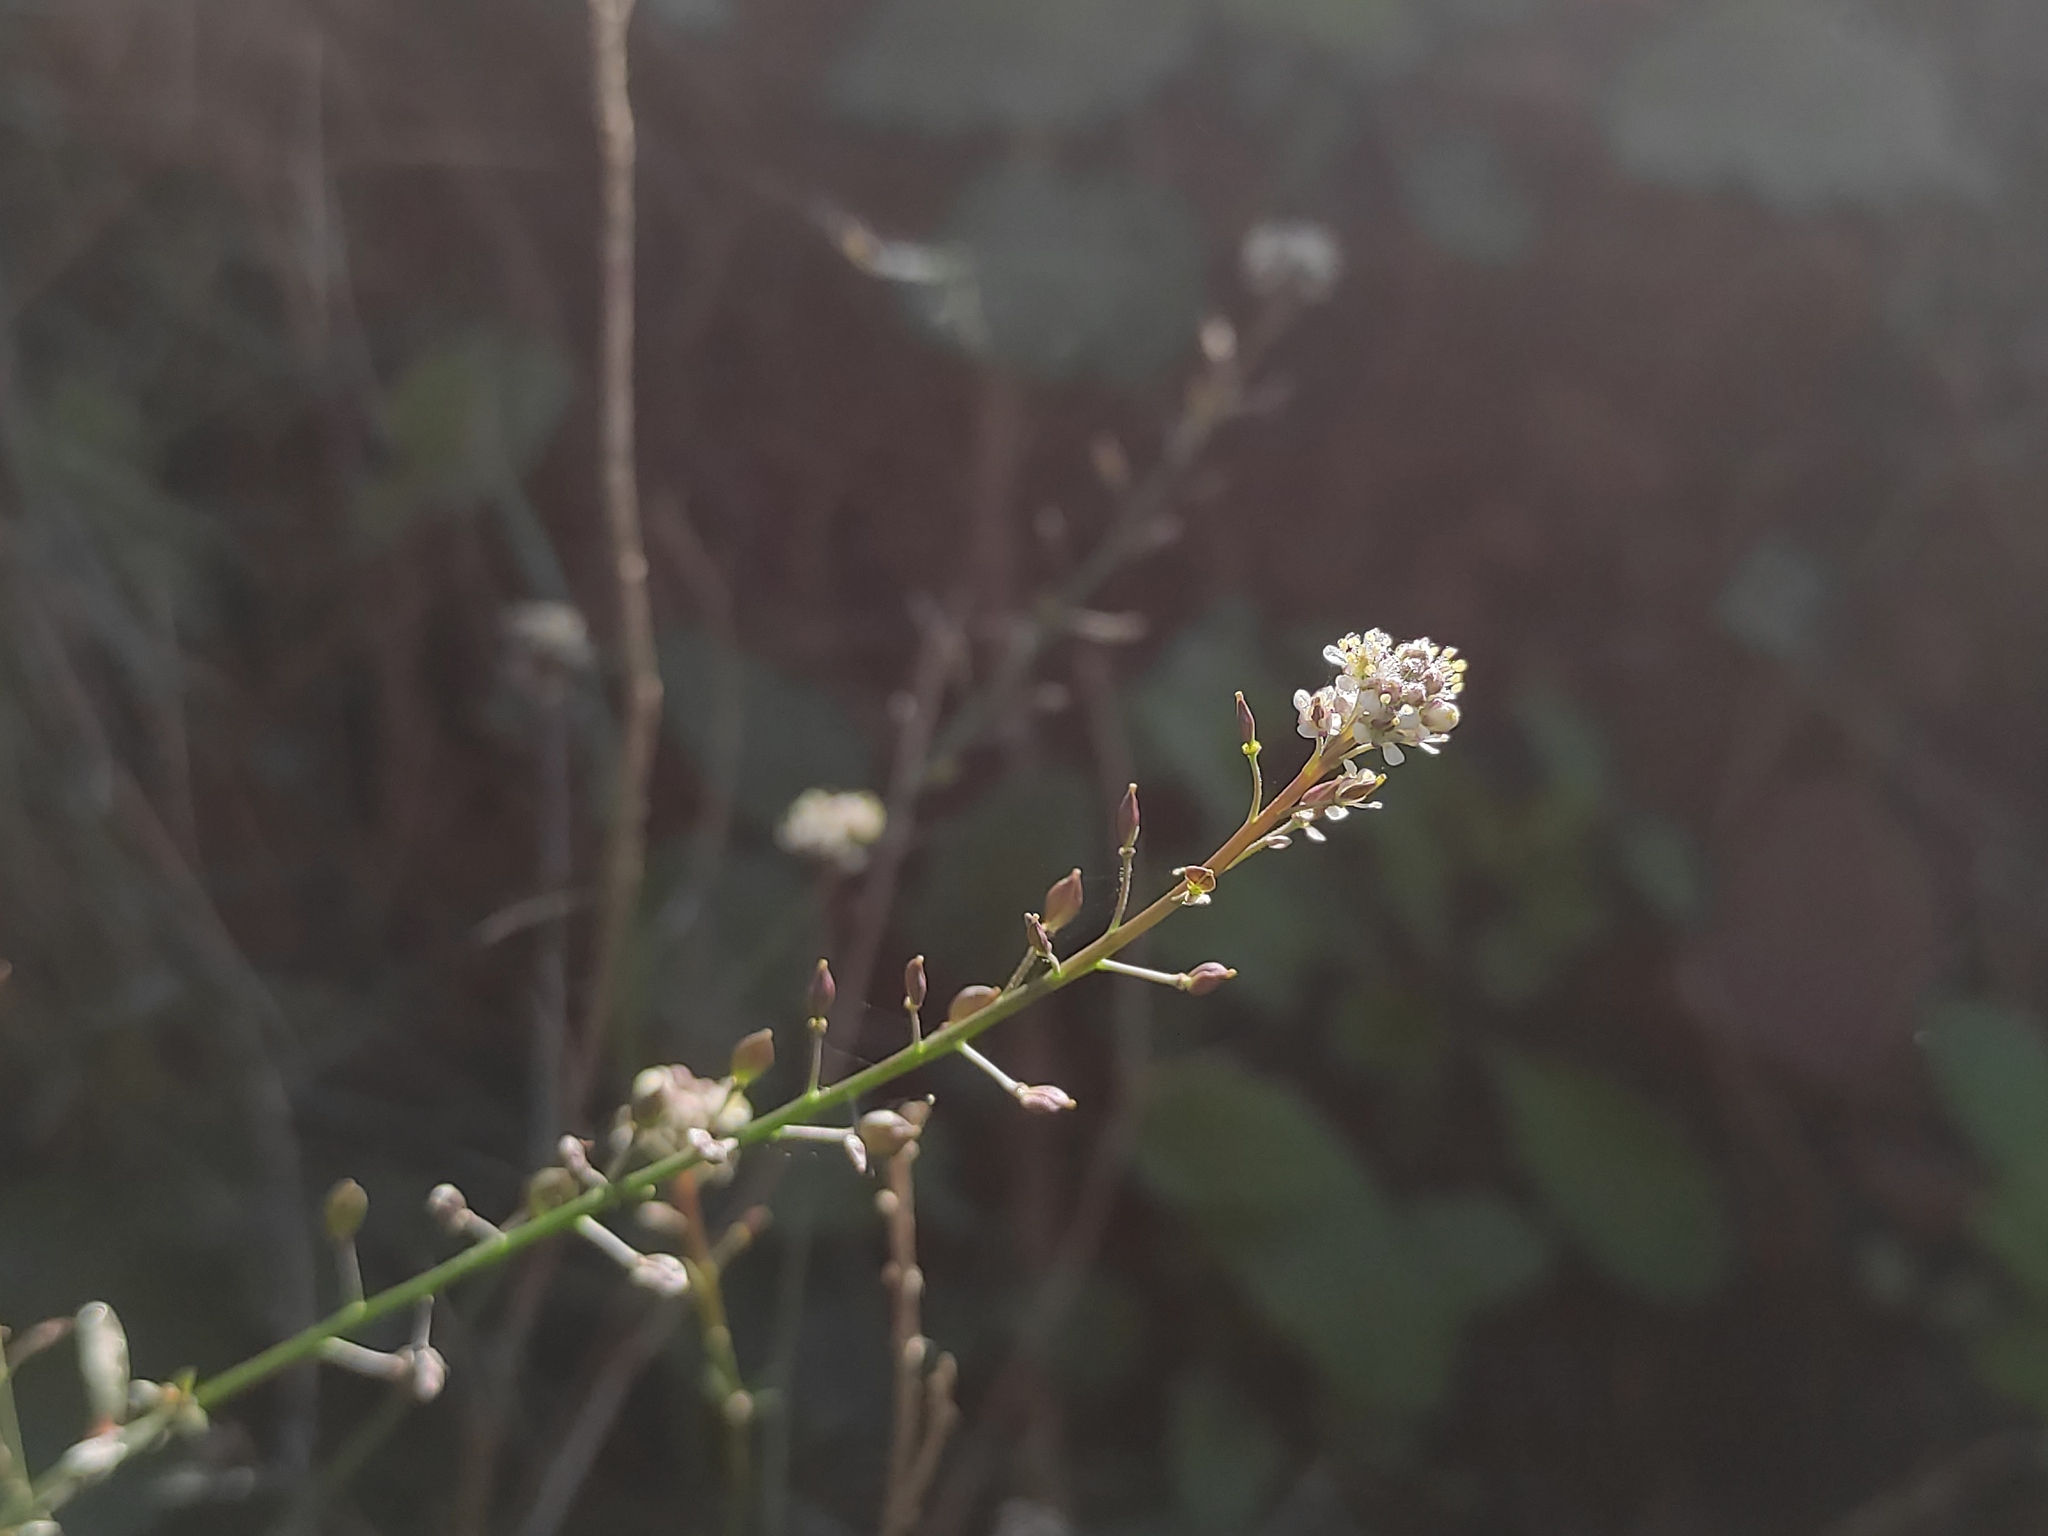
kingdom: Plantae
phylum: Tracheophyta
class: Magnoliopsida
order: Brassicales
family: Brassicaceae
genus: Lepidium
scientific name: Lepidium graminifolium
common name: Tall pepperwort
